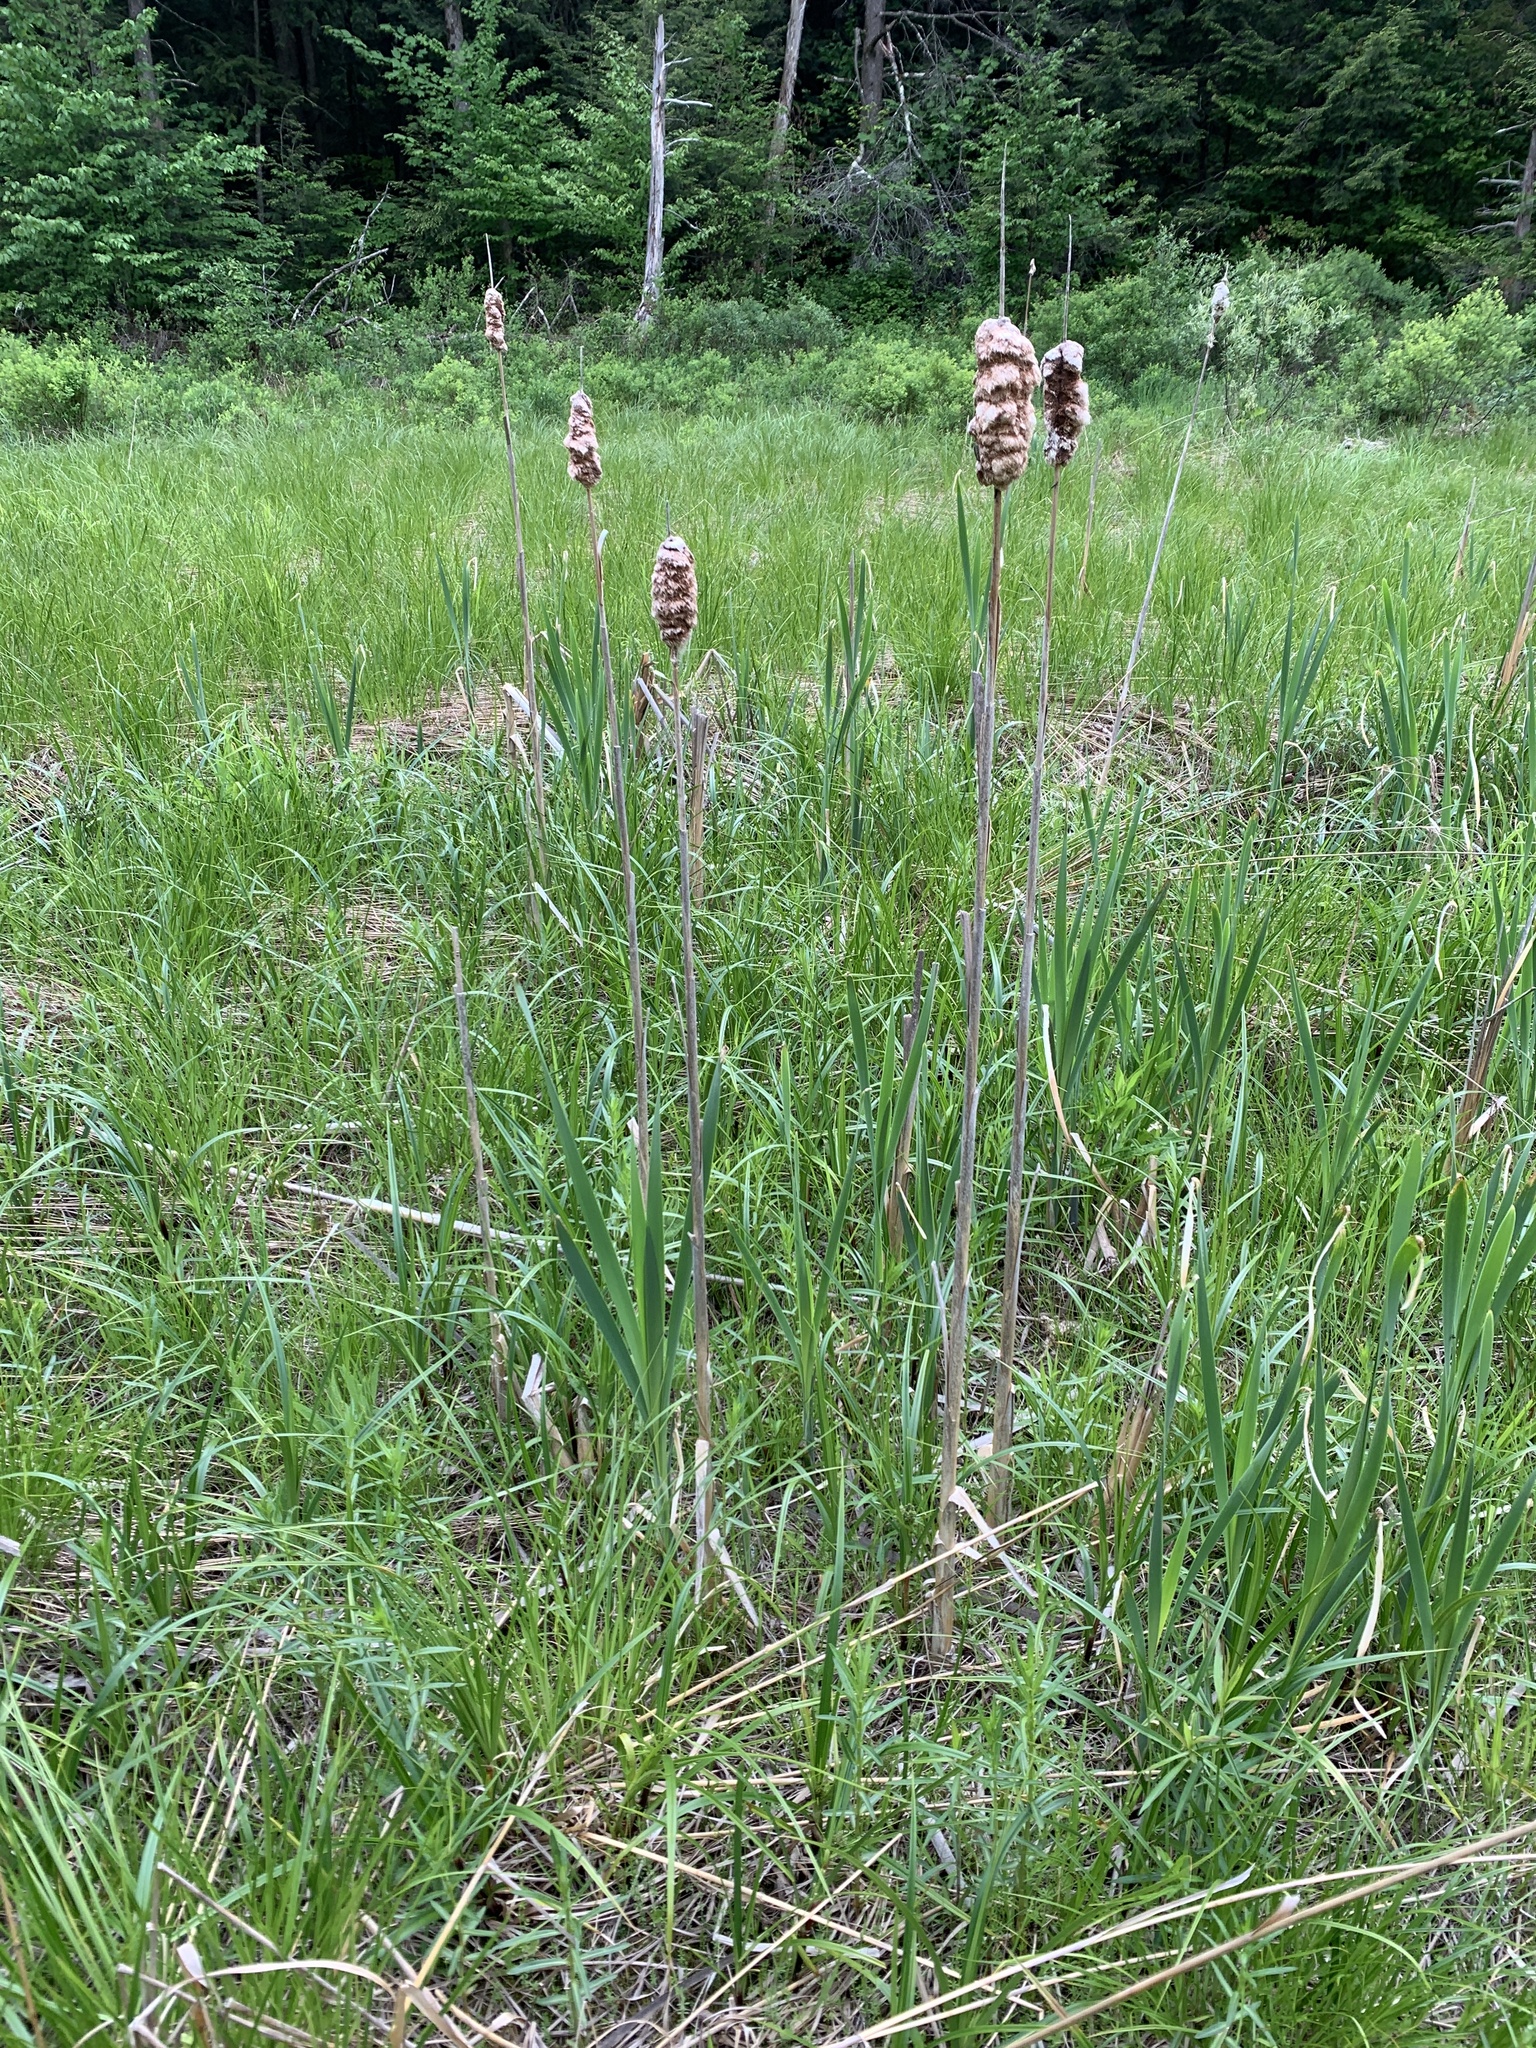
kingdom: Plantae
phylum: Tracheophyta
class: Liliopsida
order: Poales
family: Typhaceae
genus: Typha
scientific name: Typha latifolia
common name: Broadleaf cattail
